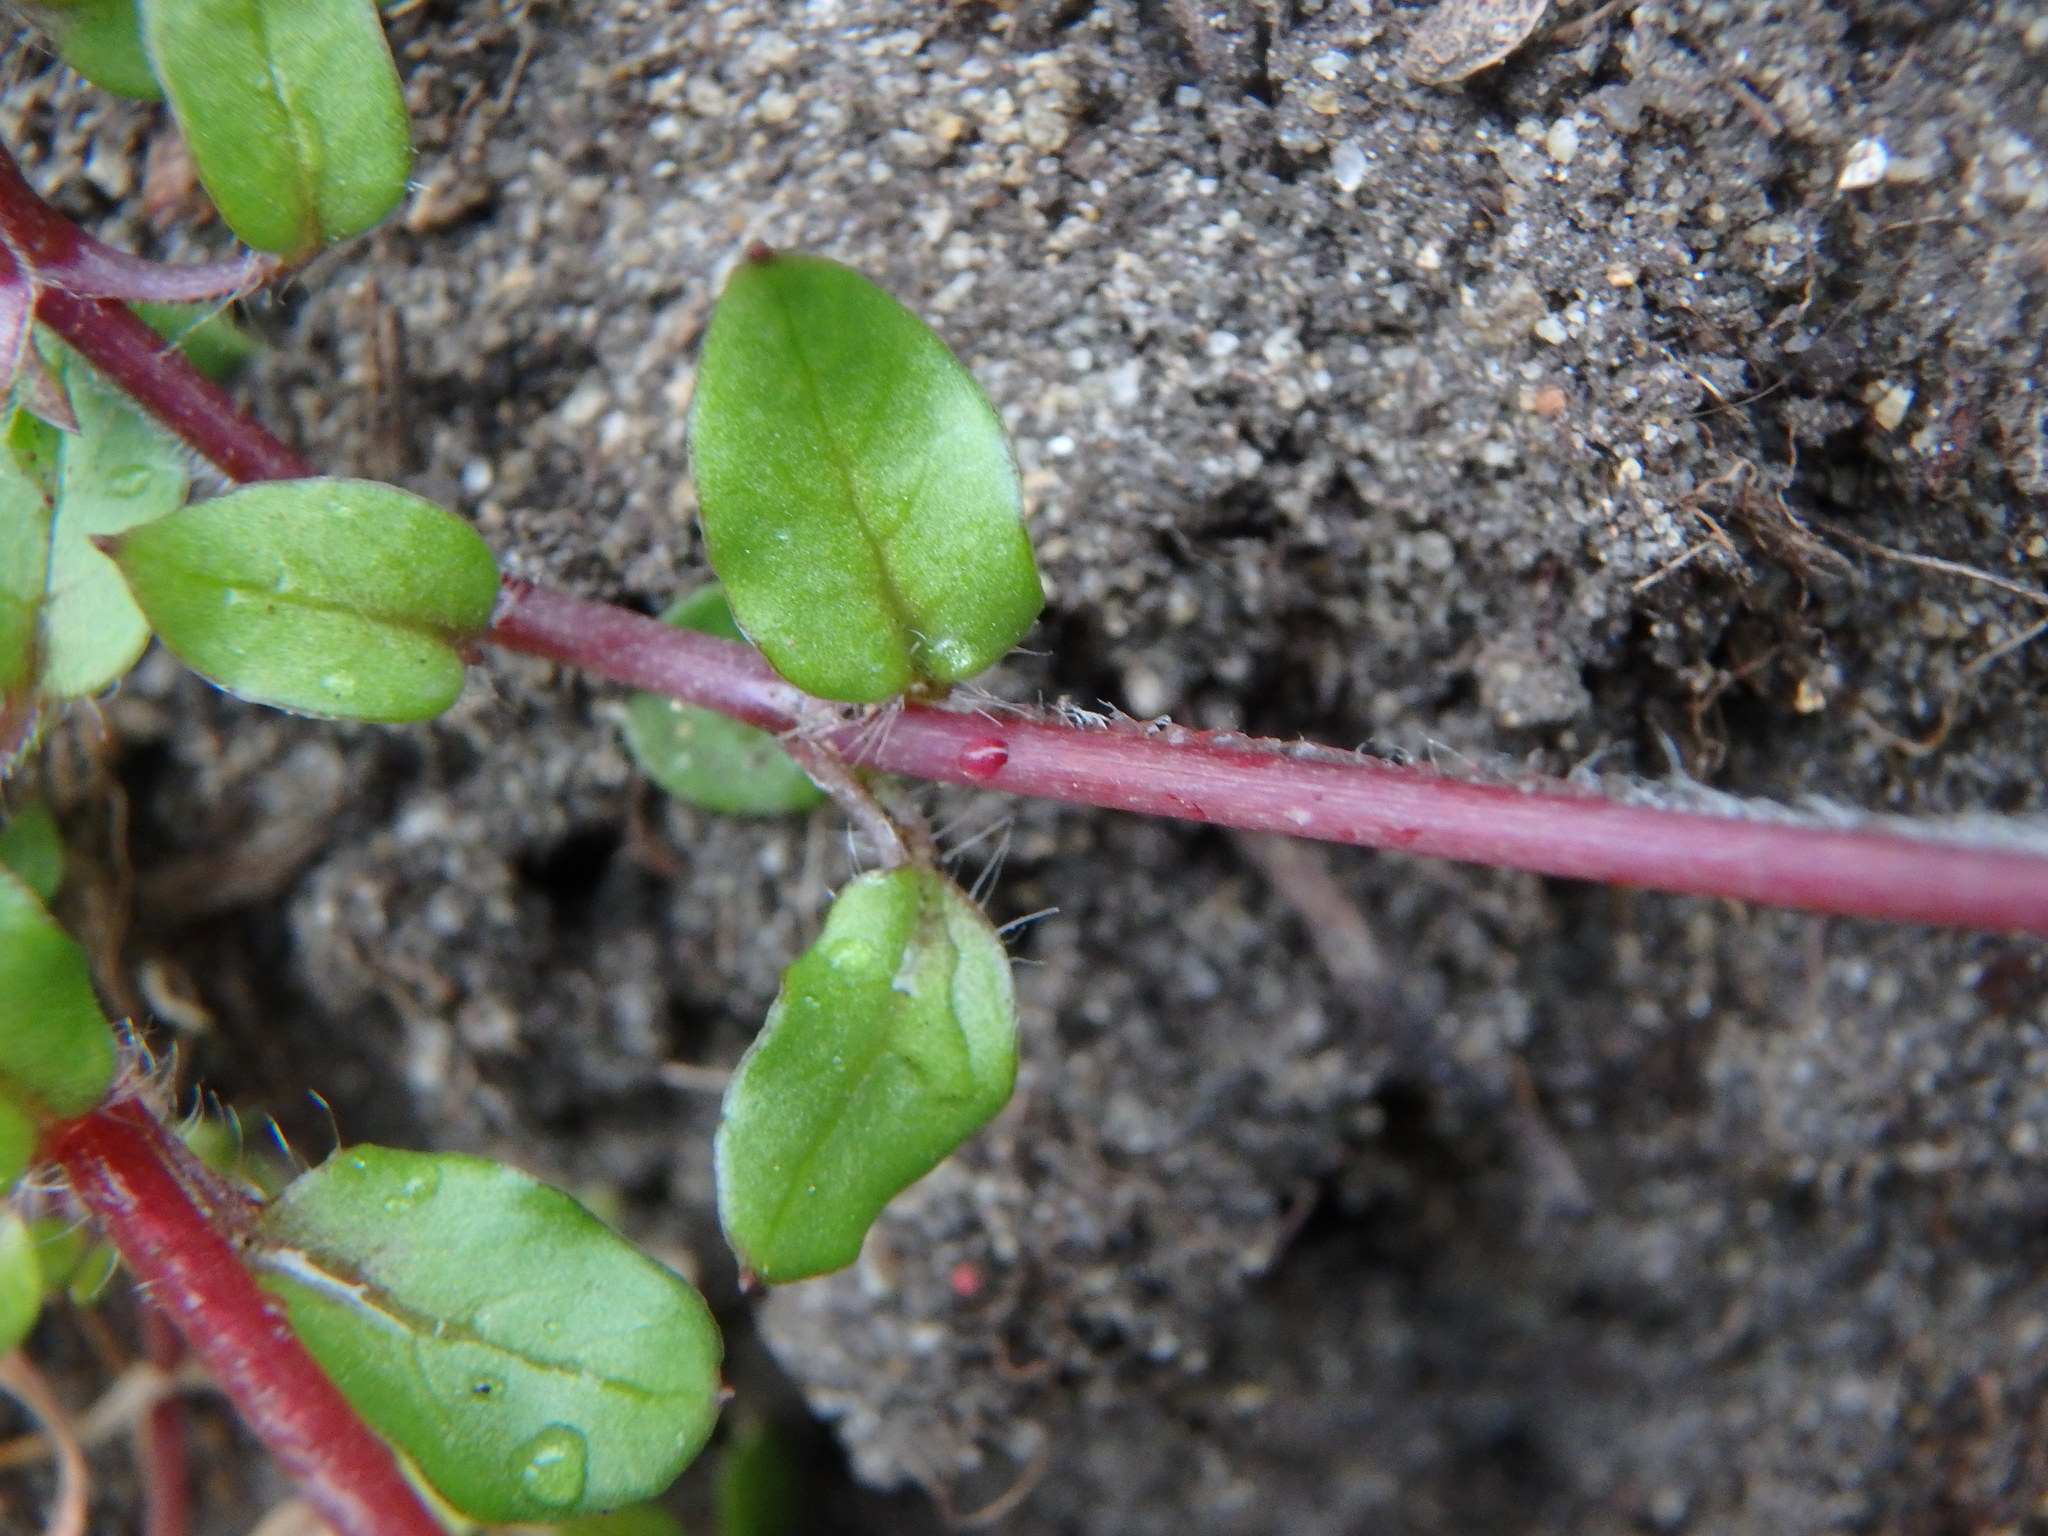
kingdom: Plantae
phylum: Tracheophyta
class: Magnoliopsida
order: Caryophyllales
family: Caryophyllaceae
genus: Stellaria
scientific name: Stellaria media
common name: Common chickweed
